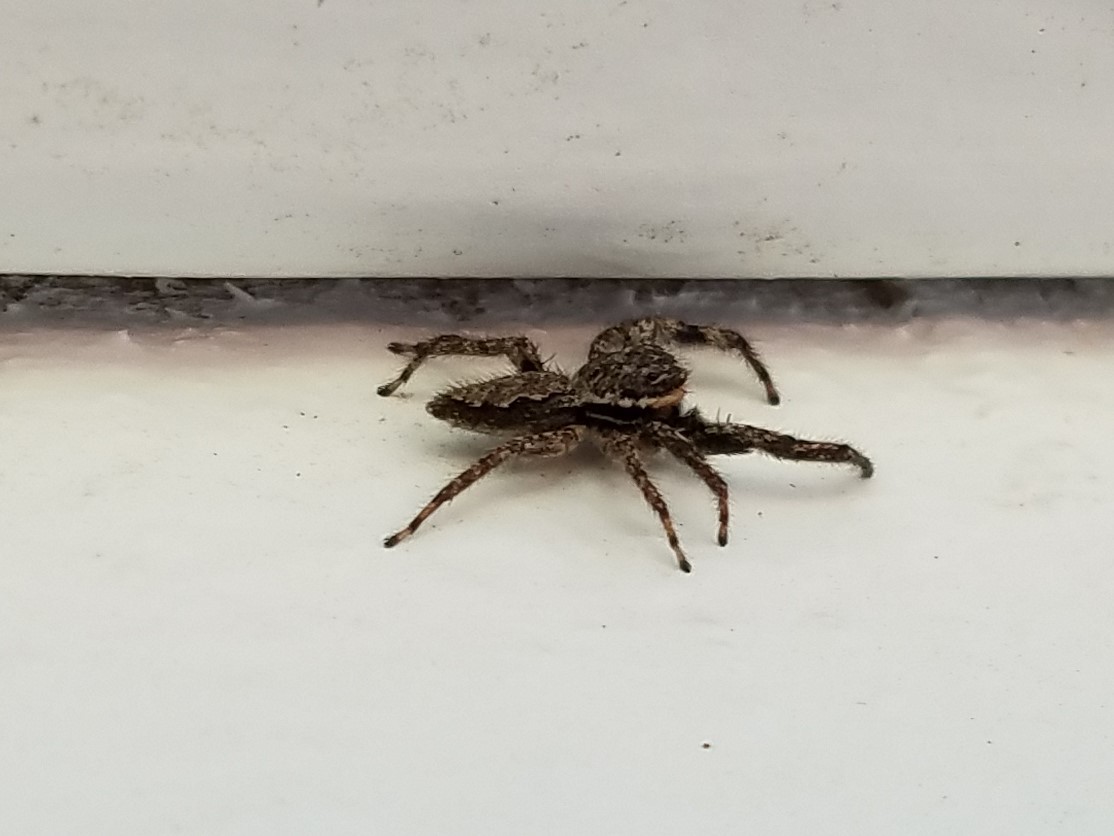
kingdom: Animalia
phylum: Arthropoda
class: Arachnida
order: Araneae
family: Salticidae
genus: Platycryptus
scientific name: Platycryptus undatus
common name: Tan jumping spider
